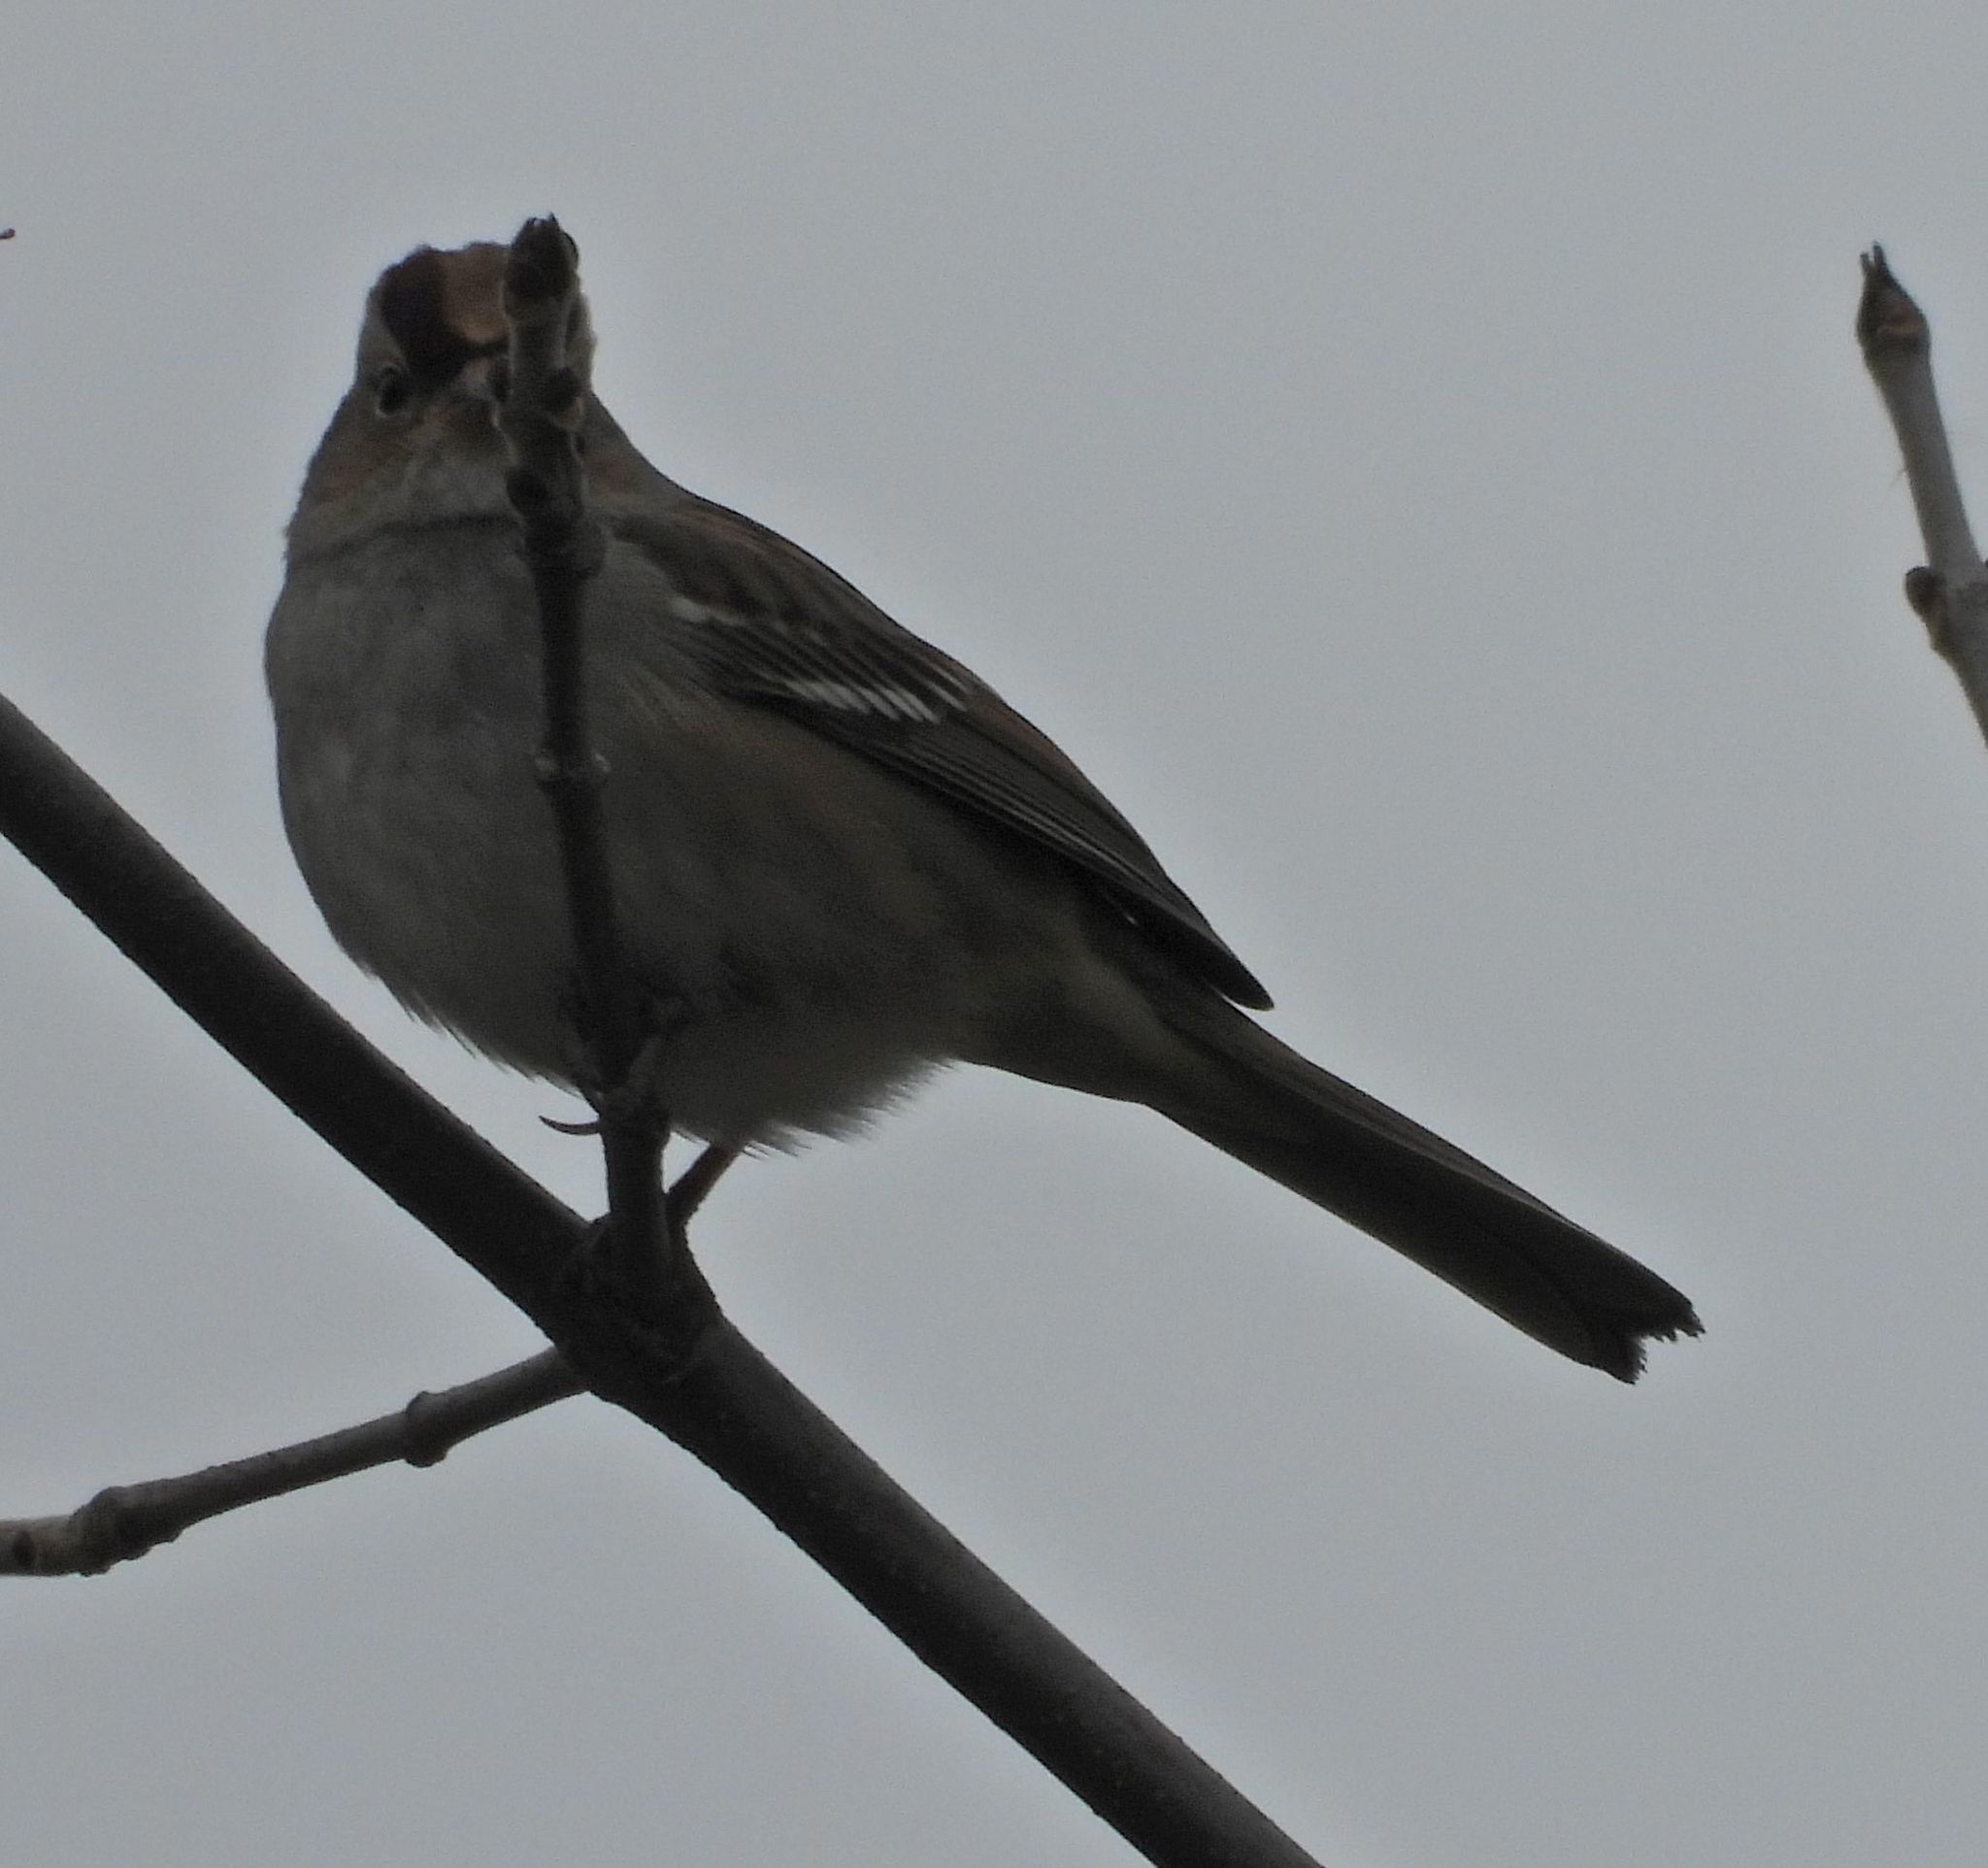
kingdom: Animalia
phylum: Chordata
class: Aves
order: Passeriformes
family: Passerellidae
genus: Zonotrichia
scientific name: Zonotrichia leucophrys
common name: White-crowned sparrow
